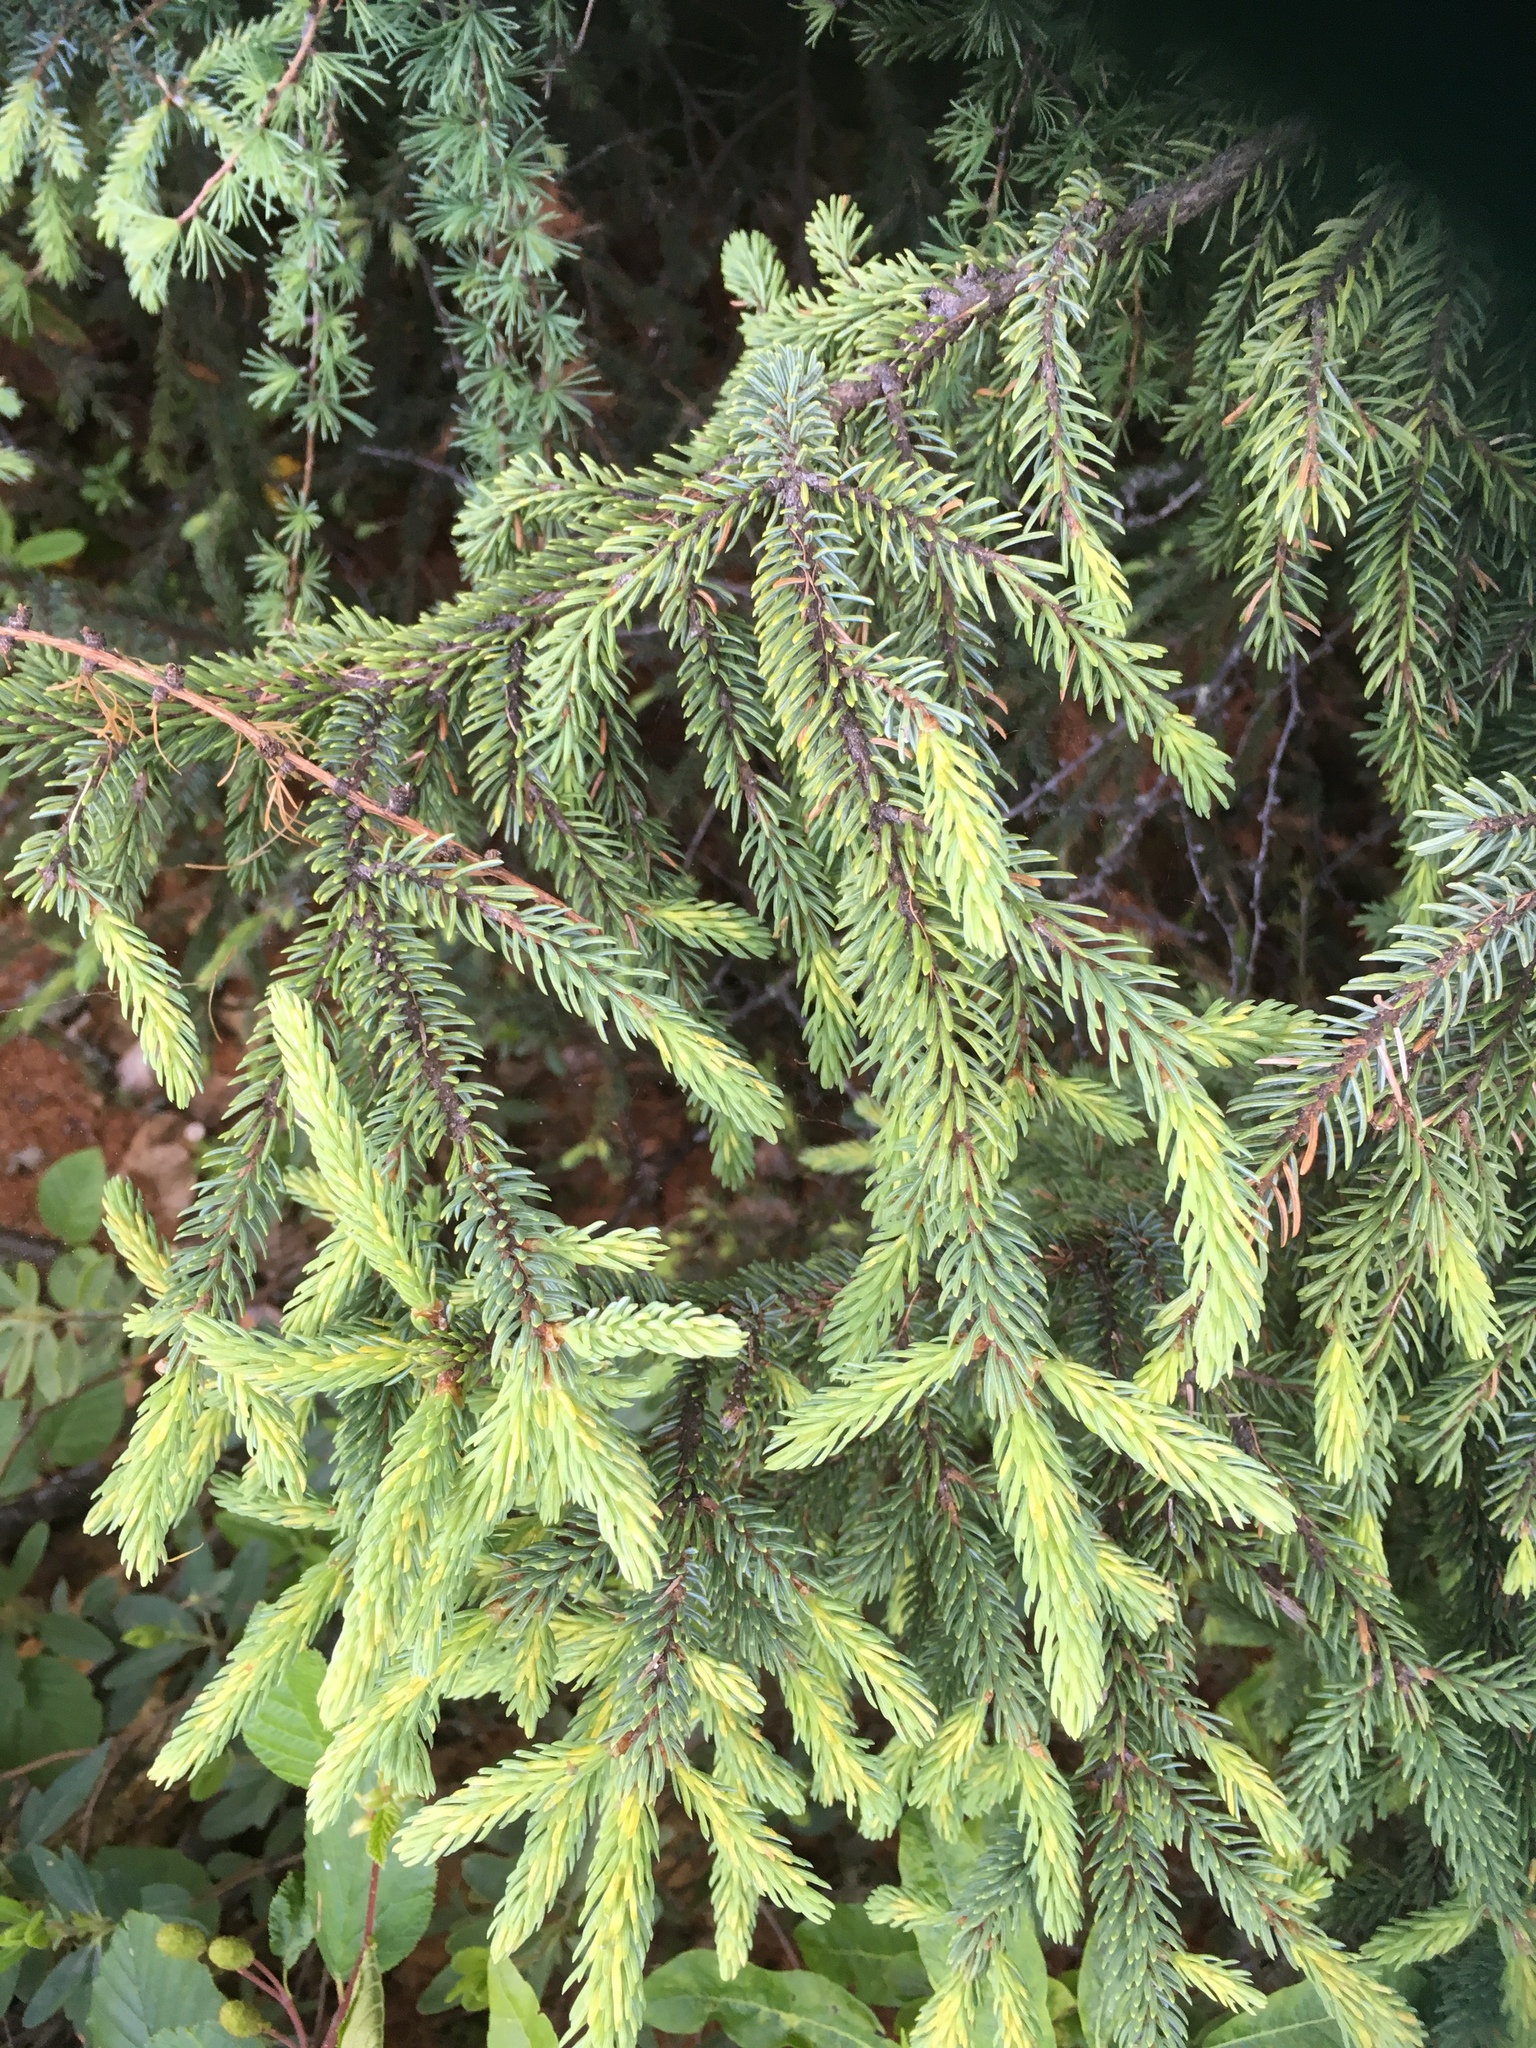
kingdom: Plantae
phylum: Tracheophyta
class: Pinopsida
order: Pinales
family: Pinaceae
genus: Picea
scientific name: Picea mariana
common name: Black spruce
